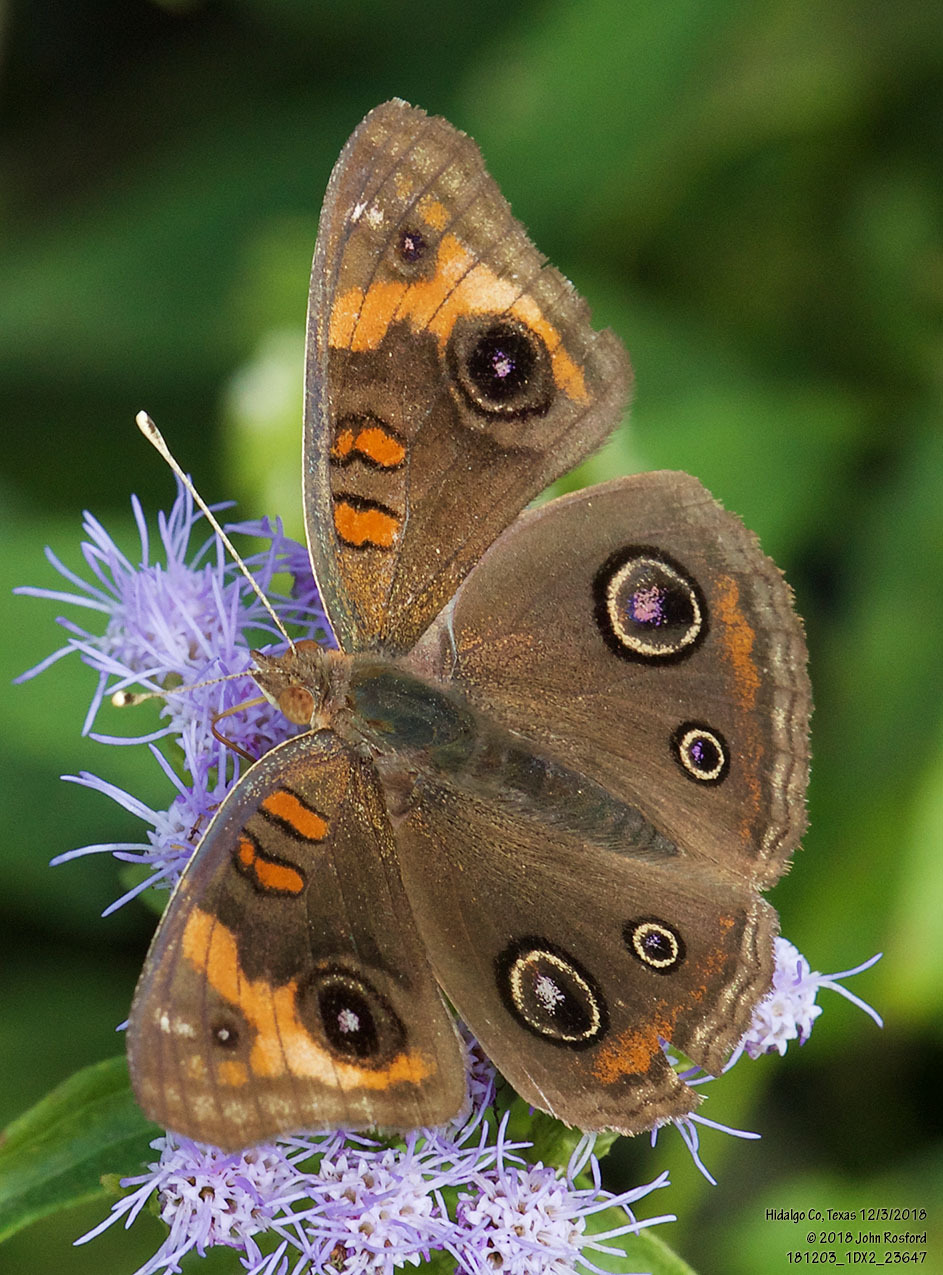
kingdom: Animalia
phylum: Arthropoda
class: Insecta
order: Lepidoptera
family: Nymphalidae
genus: Junonia
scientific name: Junonia stemosa
